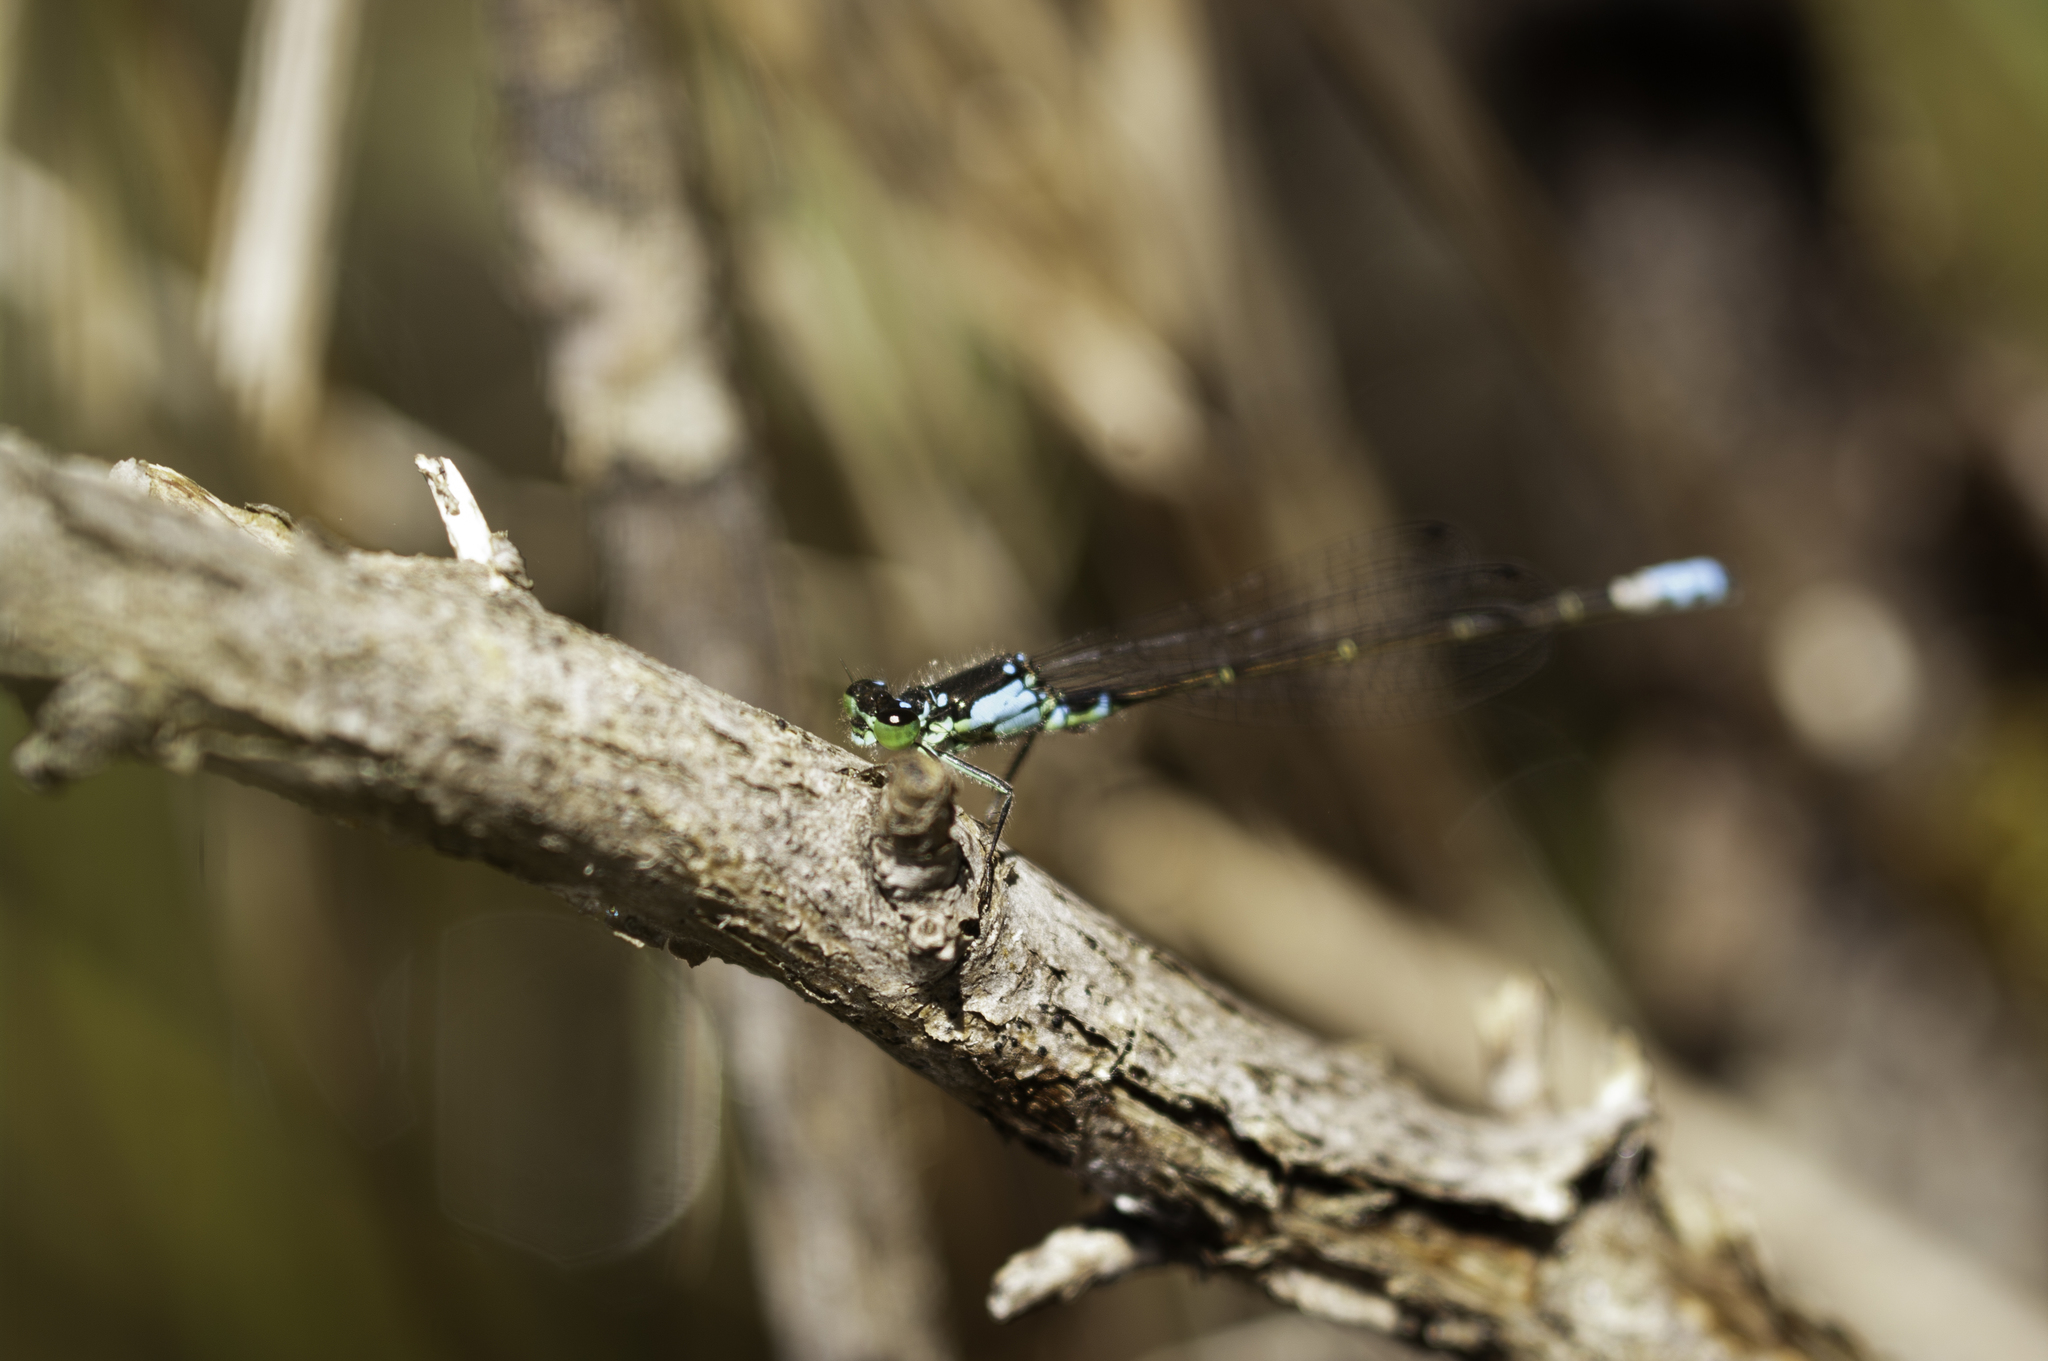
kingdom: Animalia
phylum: Arthropoda
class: Insecta
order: Odonata
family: Coenagrionidae
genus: Ischnura
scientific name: Ischnura damula
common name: Plains forktail
